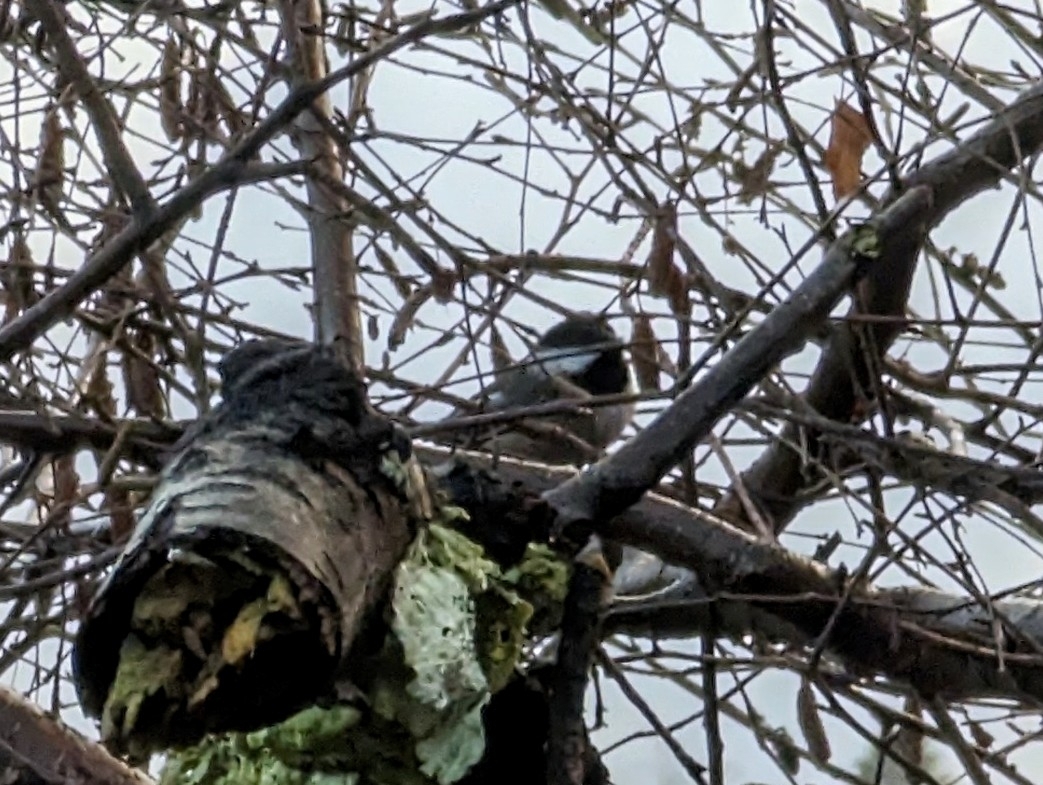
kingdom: Animalia
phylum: Chordata
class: Aves
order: Passeriformes
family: Paridae
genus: Poecile
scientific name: Poecile atricapillus
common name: Black-capped chickadee
